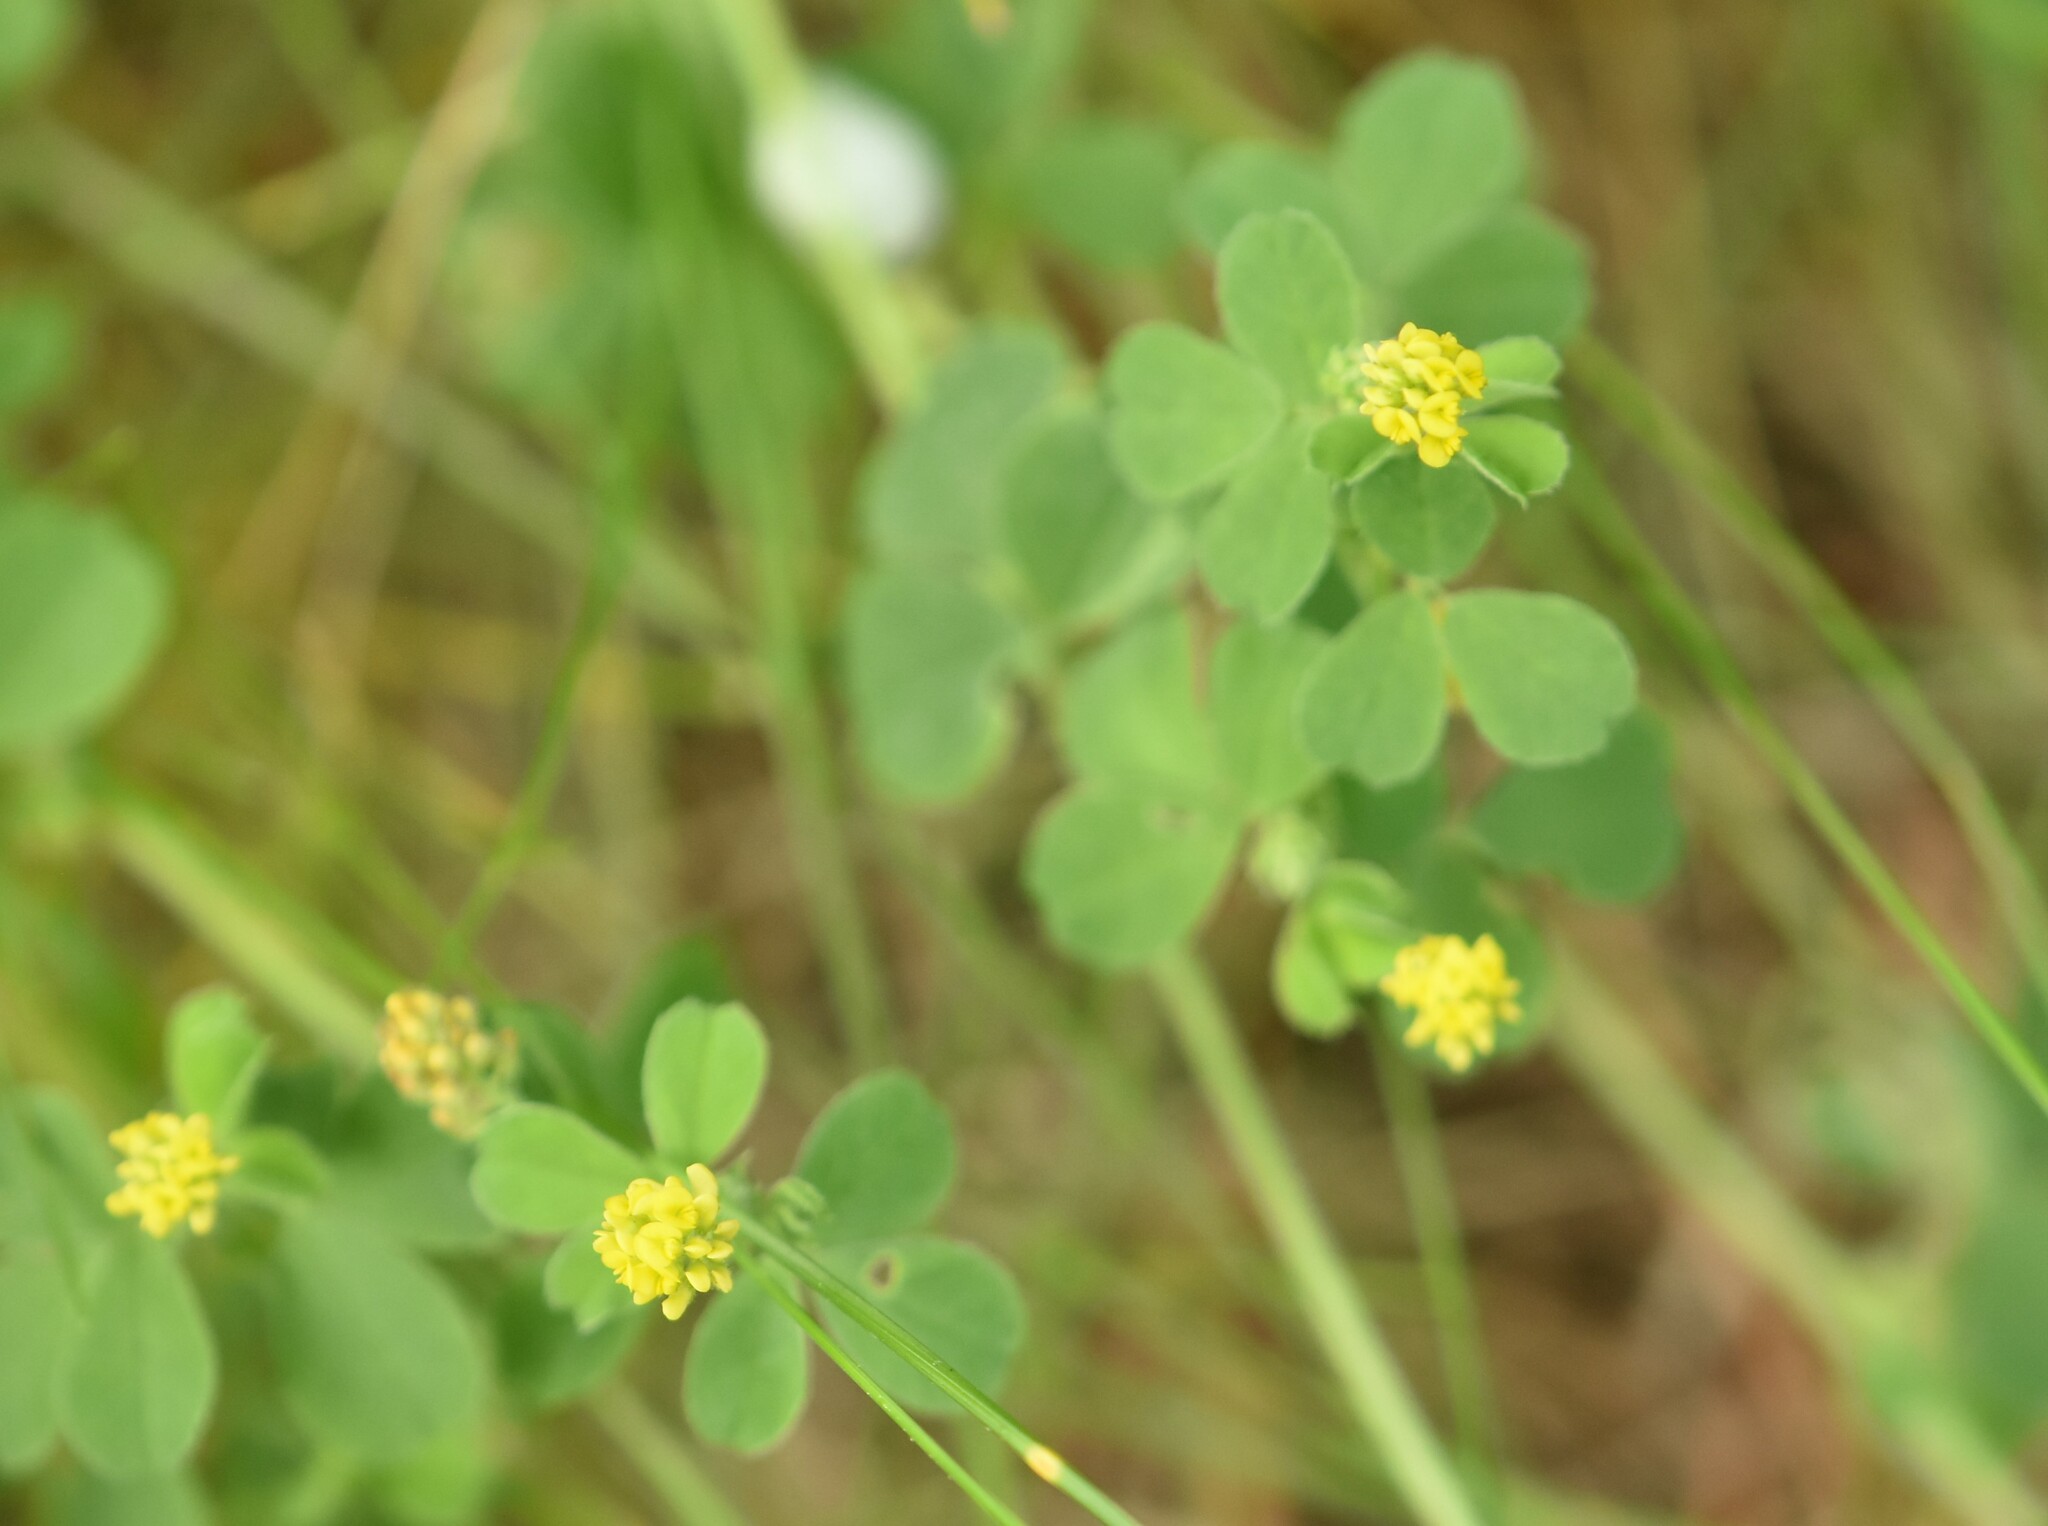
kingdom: Plantae
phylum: Tracheophyta
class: Magnoliopsida
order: Fabales
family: Fabaceae
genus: Medicago
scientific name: Medicago lupulina
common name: Black medick
